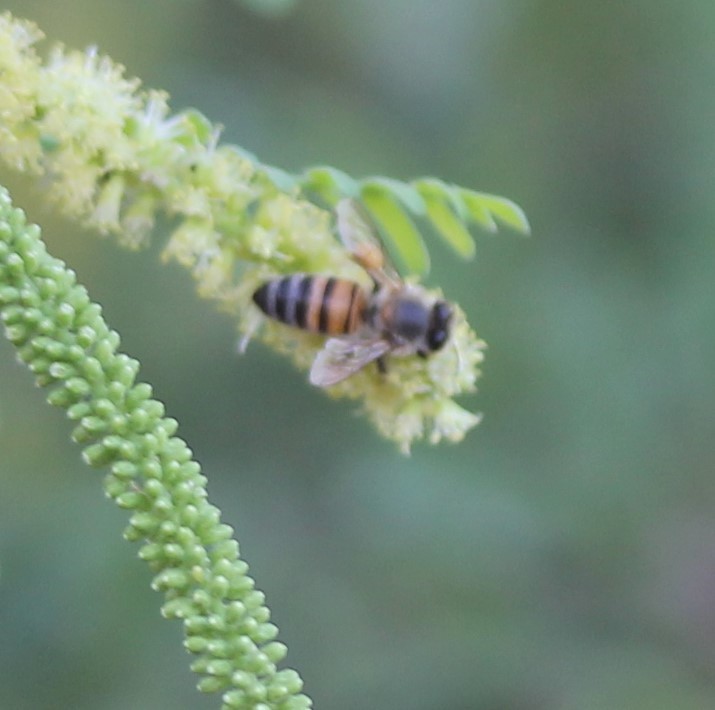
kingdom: Animalia
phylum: Arthropoda
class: Insecta
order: Hymenoptera
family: Apidae
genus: Apis
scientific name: Apis mellifera
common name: Honey bee
